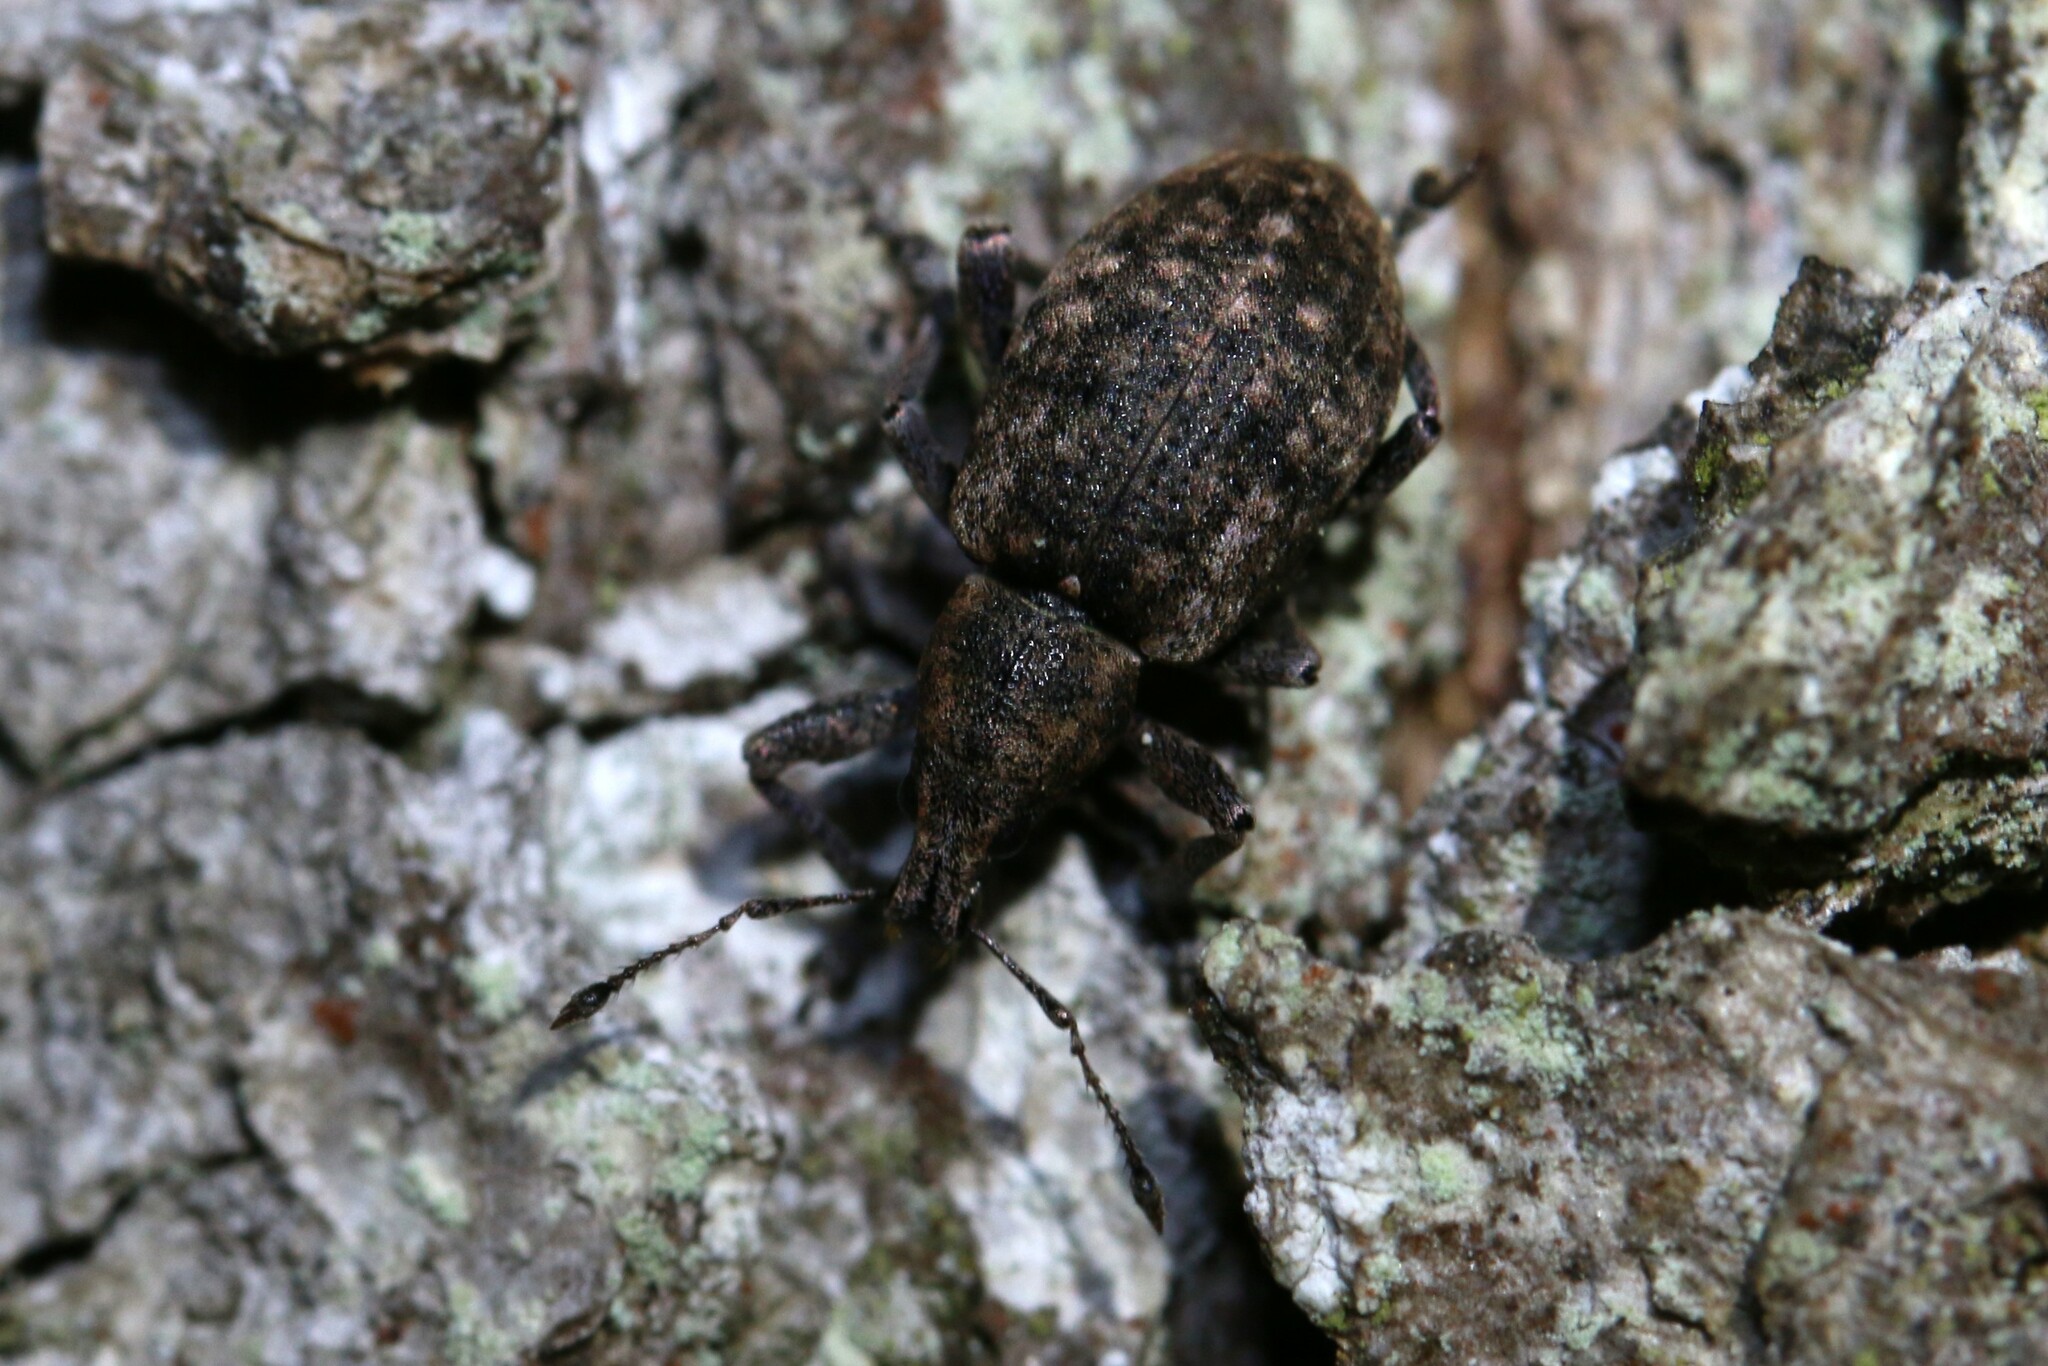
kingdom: Animalia
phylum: Arthropoda
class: Insecta
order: Coleoptera
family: Curculionidae
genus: Liophloeus
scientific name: Liophloeus tessulatus
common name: Weevil
